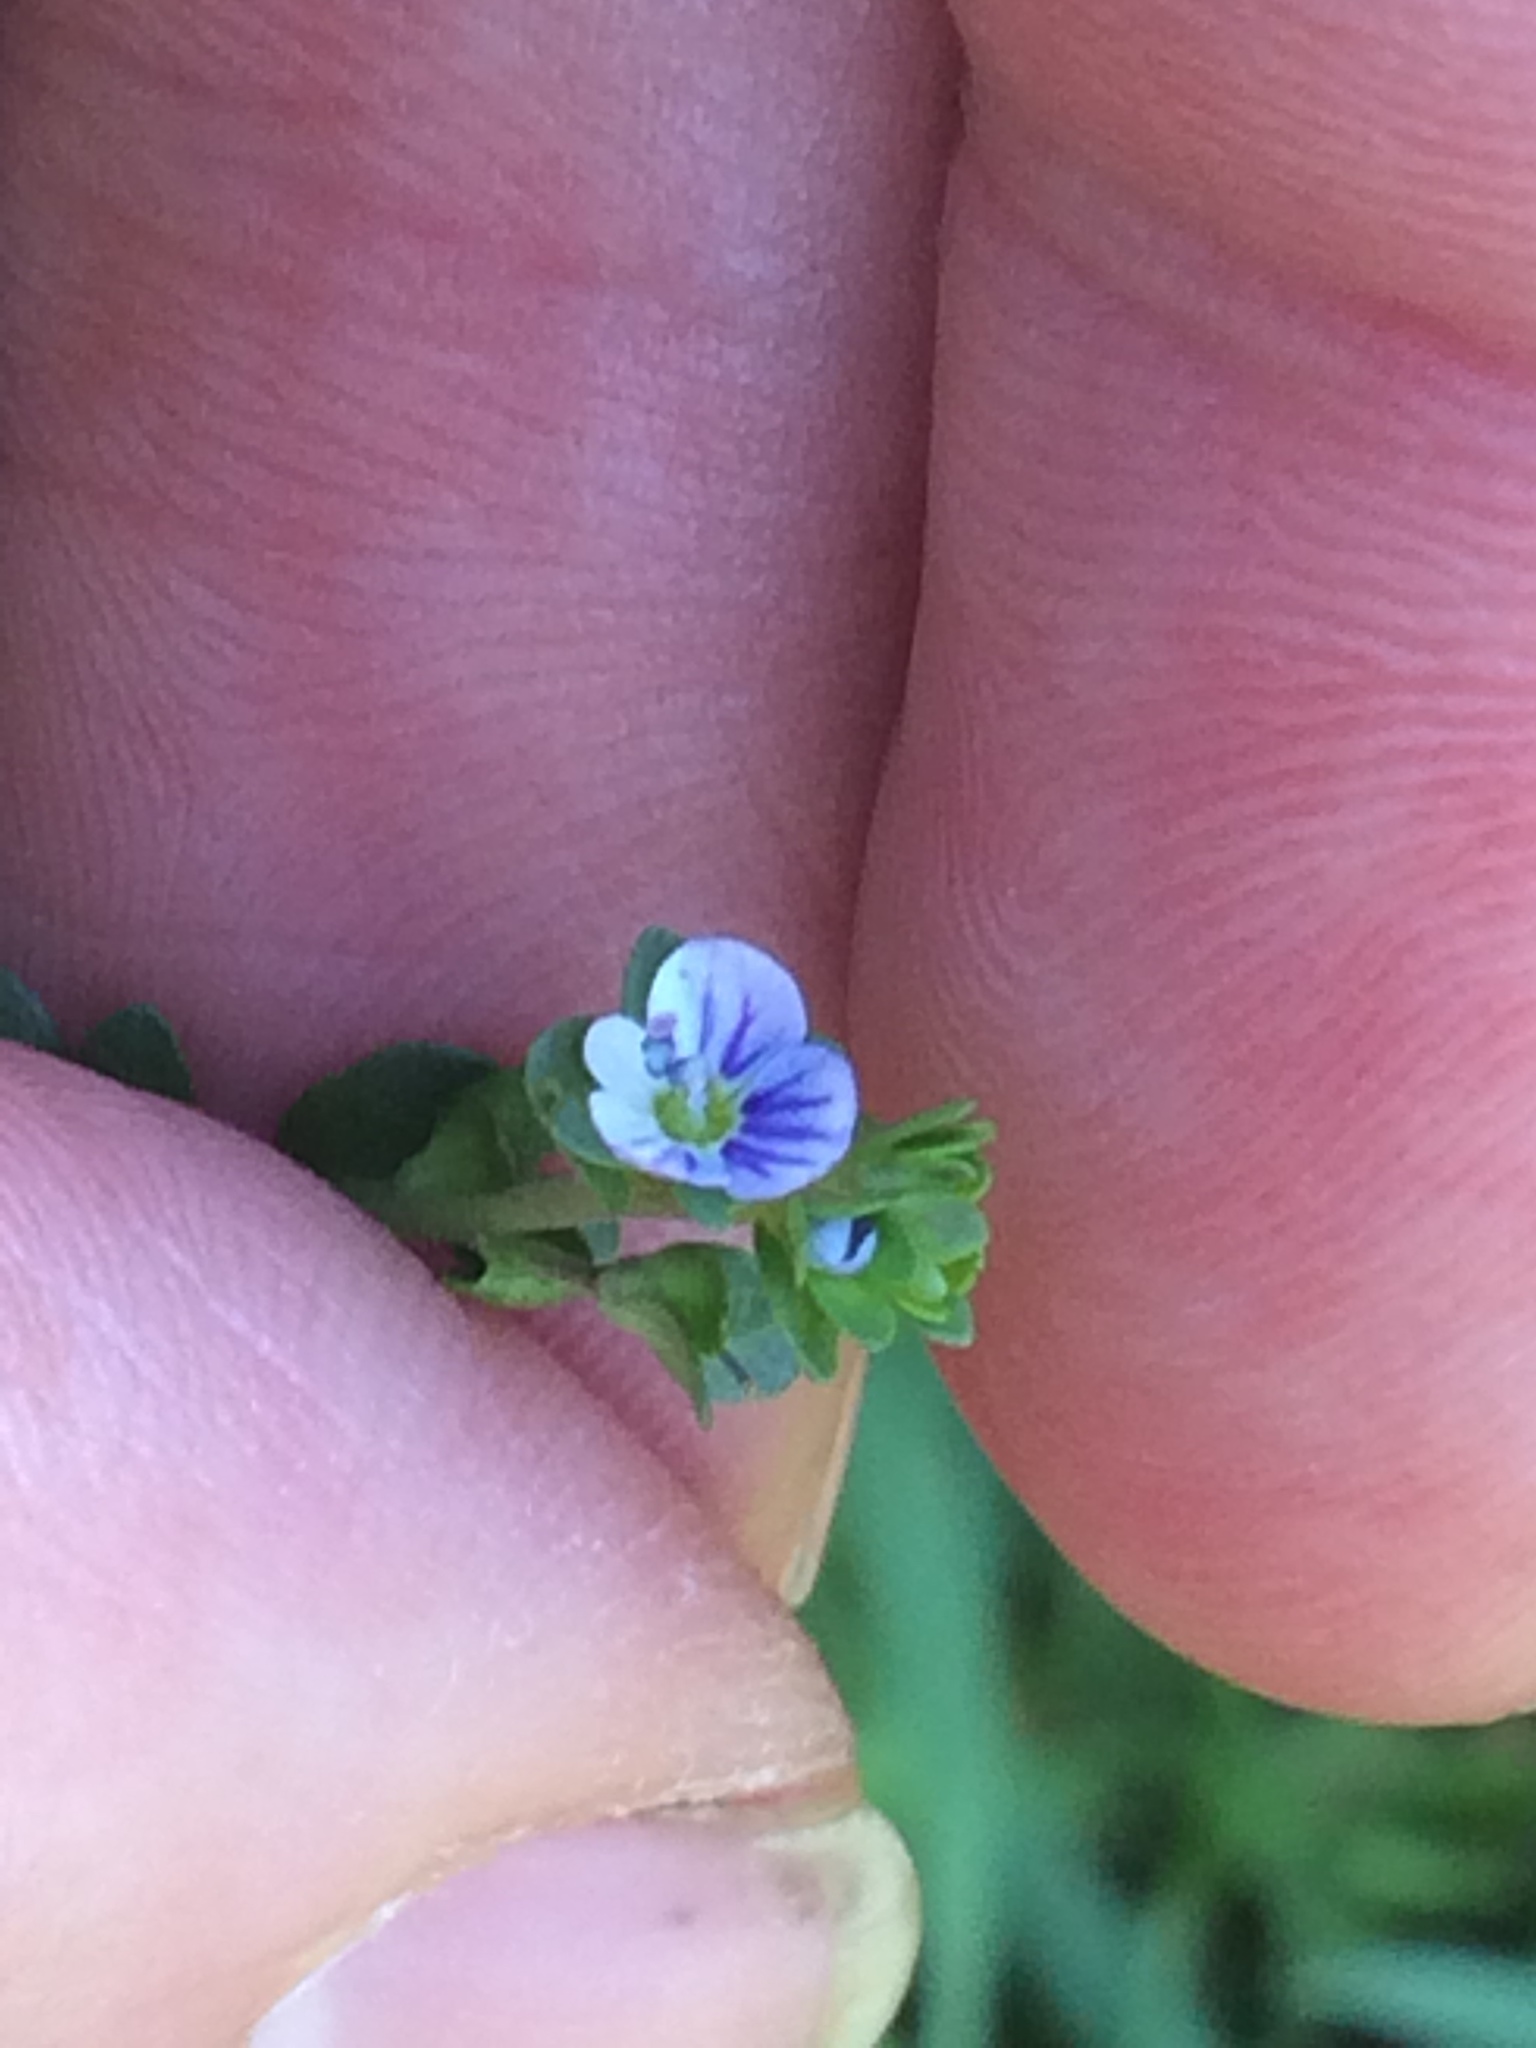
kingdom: Plantae
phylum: Tracheophyta
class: Magnoliopsida
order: Lamiales
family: Plantaginaceae
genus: Veronica
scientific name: Veronica serpyllifolia
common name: Thyme-leaved speedwell
